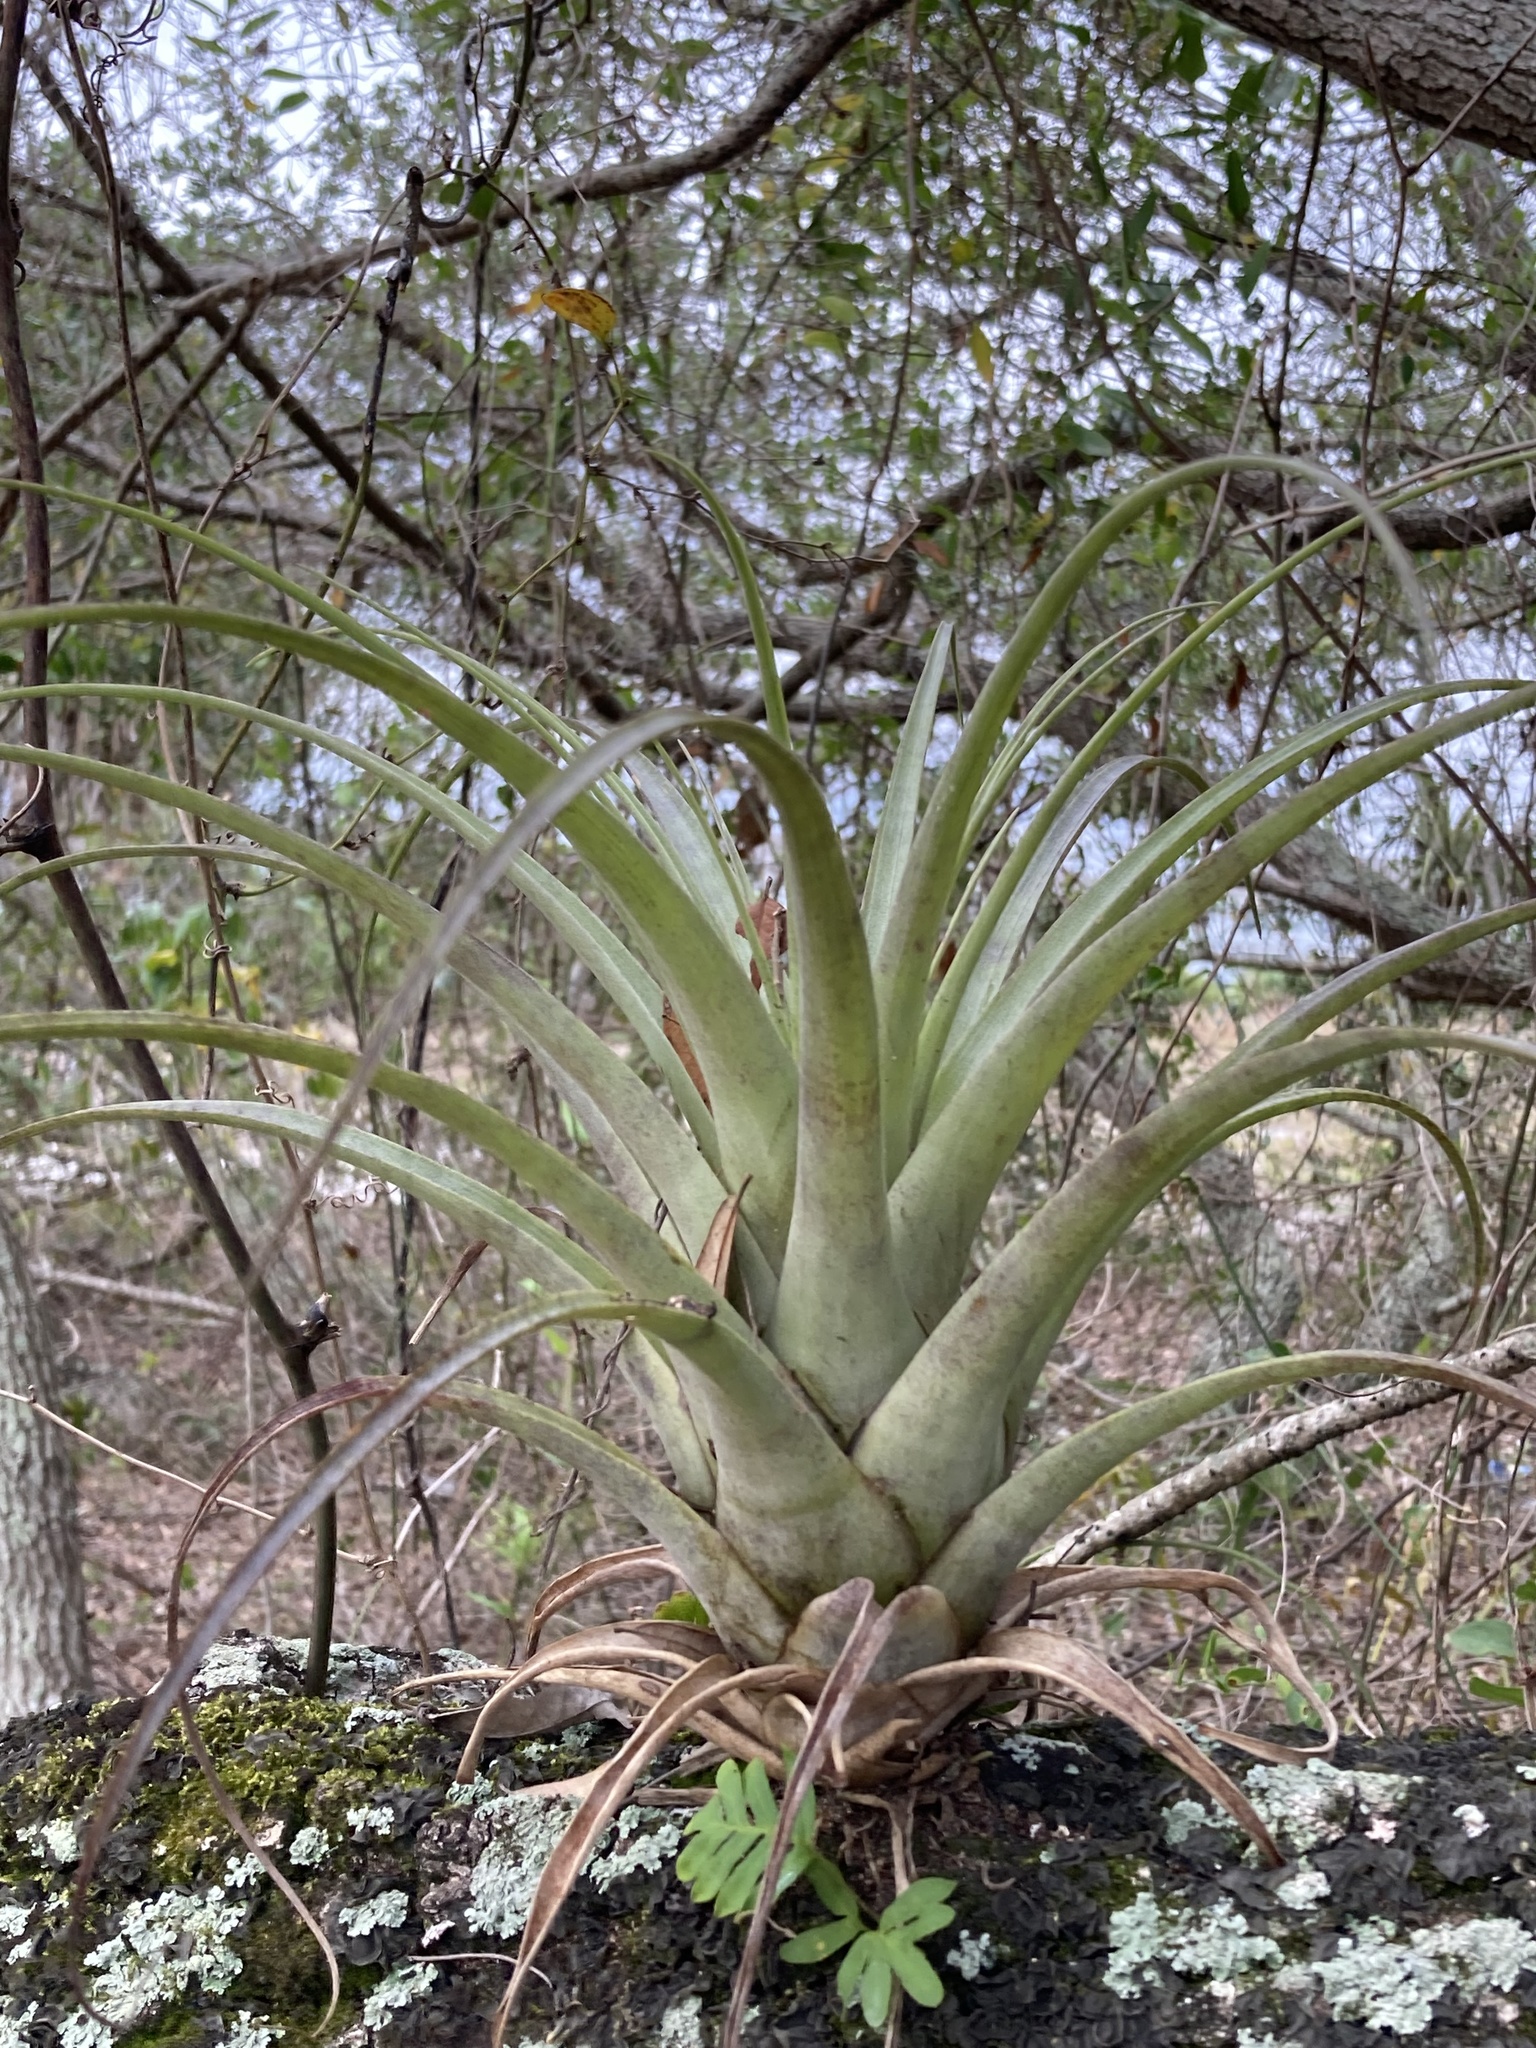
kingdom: Plantae
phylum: Tracheophyta
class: Liliopsida
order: Poales
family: Bromeliaceae
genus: Tillandsia
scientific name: Tillandsia utriculata
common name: Wild pine
